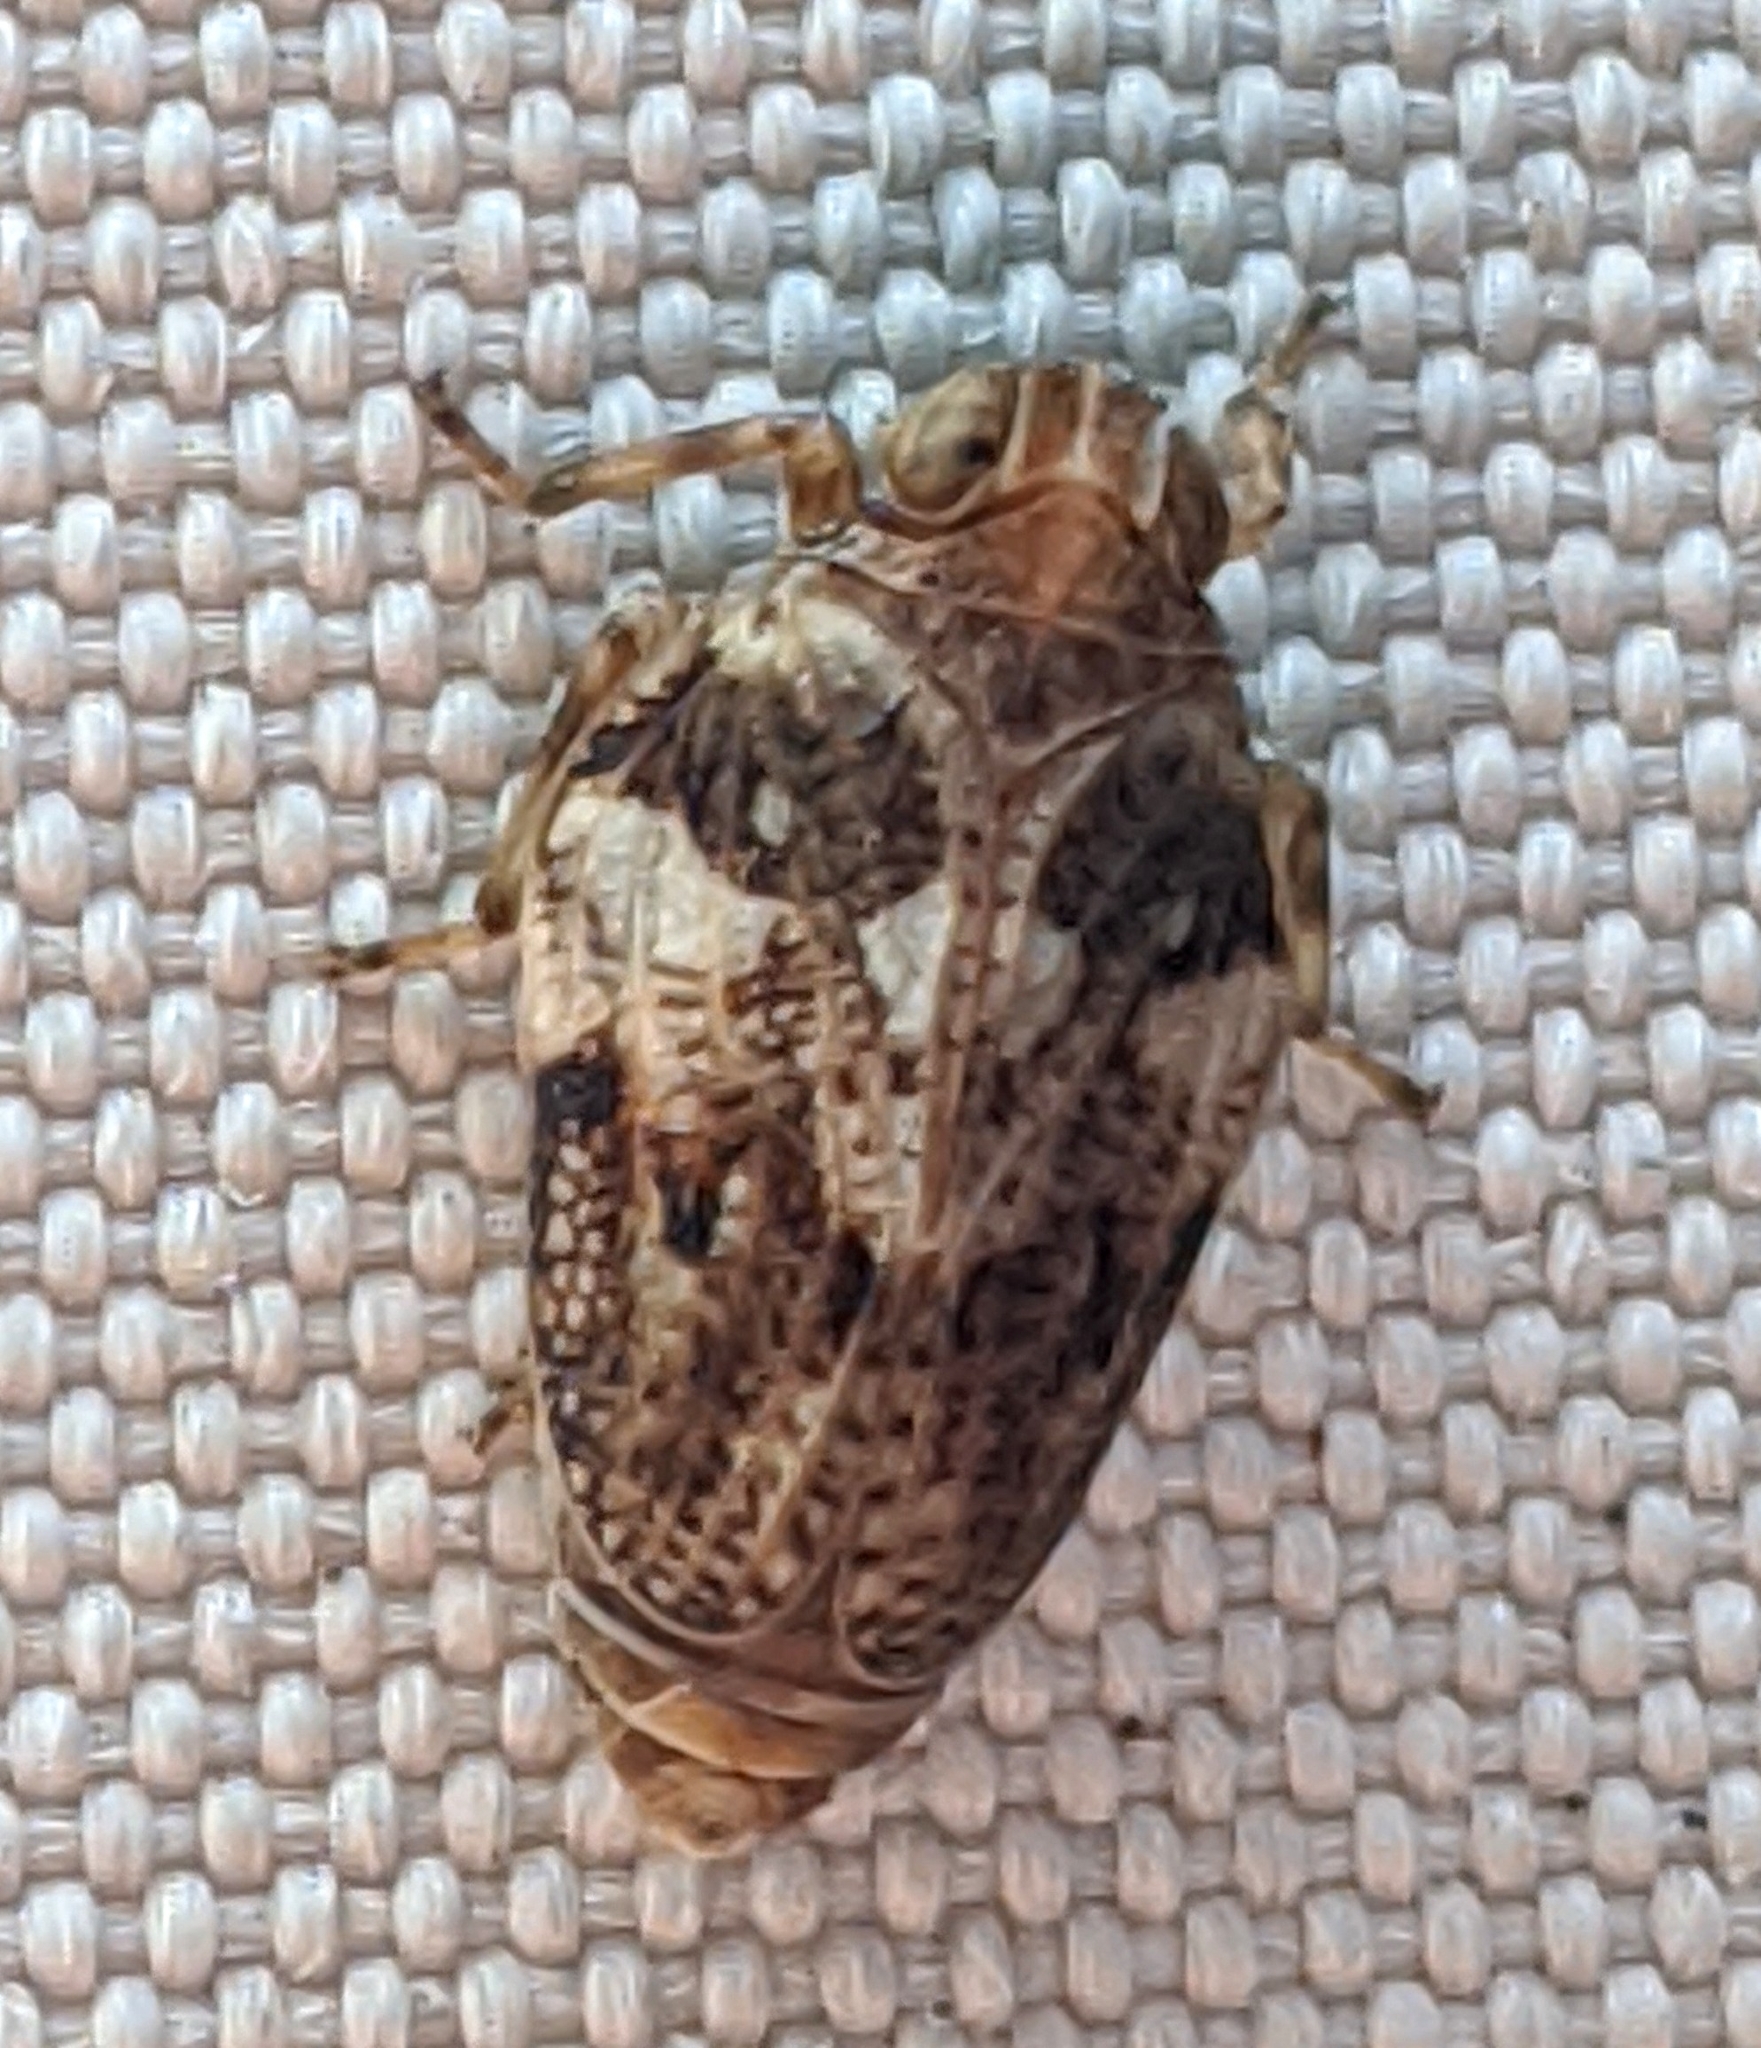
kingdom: Animalia
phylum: Arthropoda
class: Insecta
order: Hemiptera
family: Issidae
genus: Issus
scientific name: Issus coleoptratus
